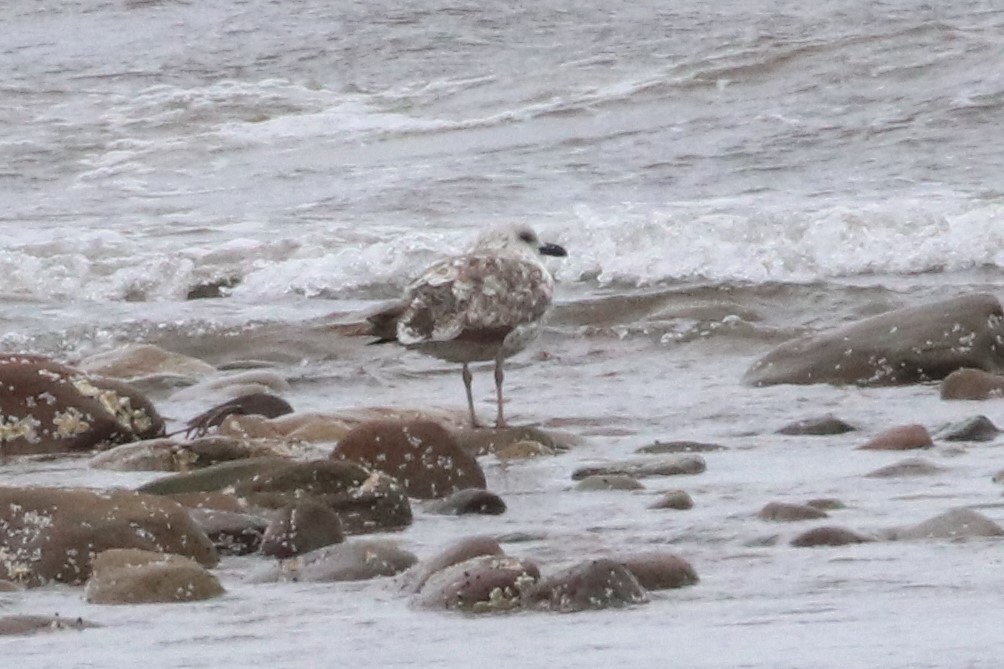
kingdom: Animalia
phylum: Chordata
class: Aves
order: Charadriiformes
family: Laridae
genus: Larus
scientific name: Larus fuscus
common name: Lesser black-backed gull
